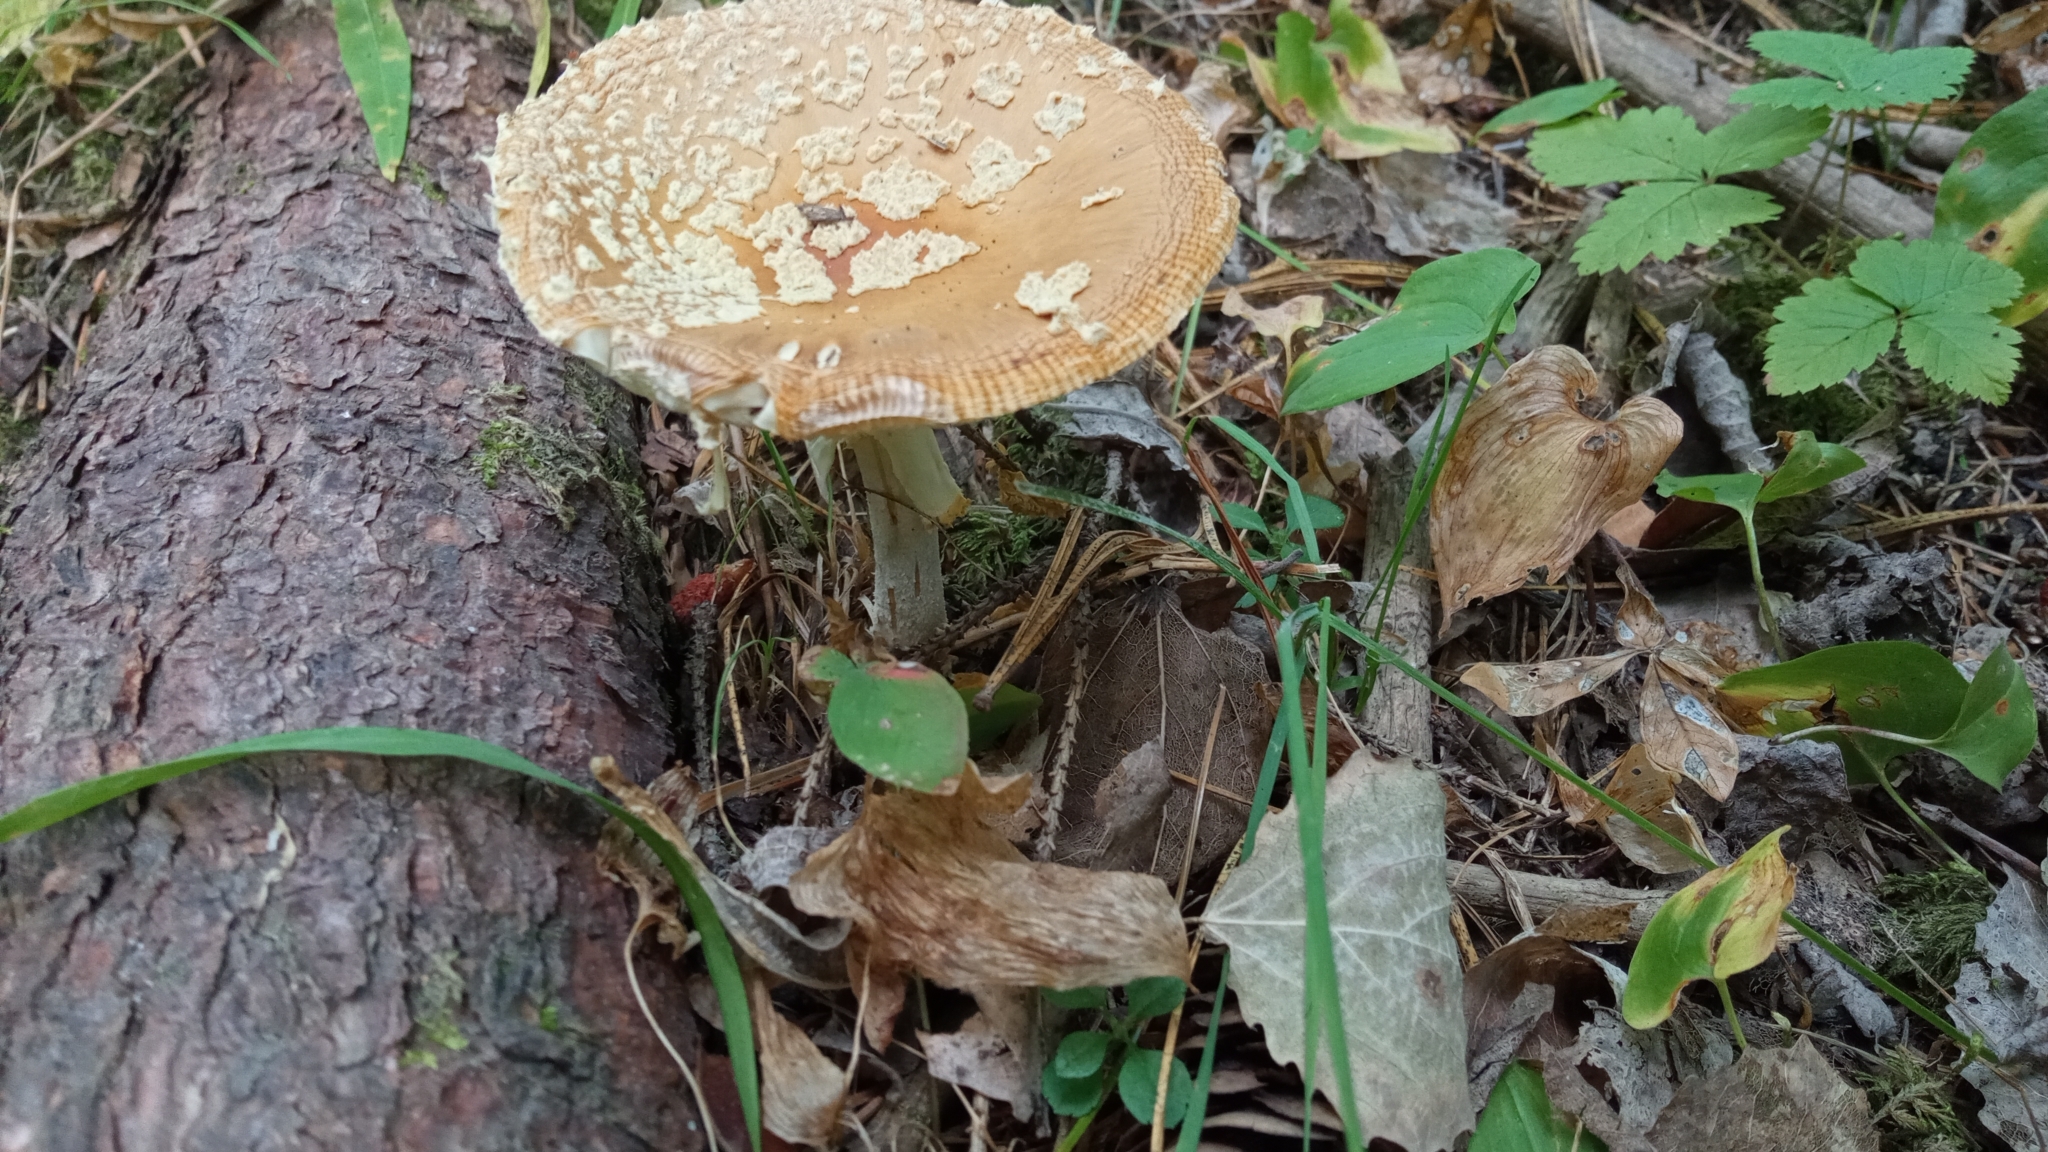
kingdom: Fungi
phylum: Basidiomycota
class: Agaricomycetes
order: Agaricales
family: Amanitaceae
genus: Amanita
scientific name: Amanita regalis
